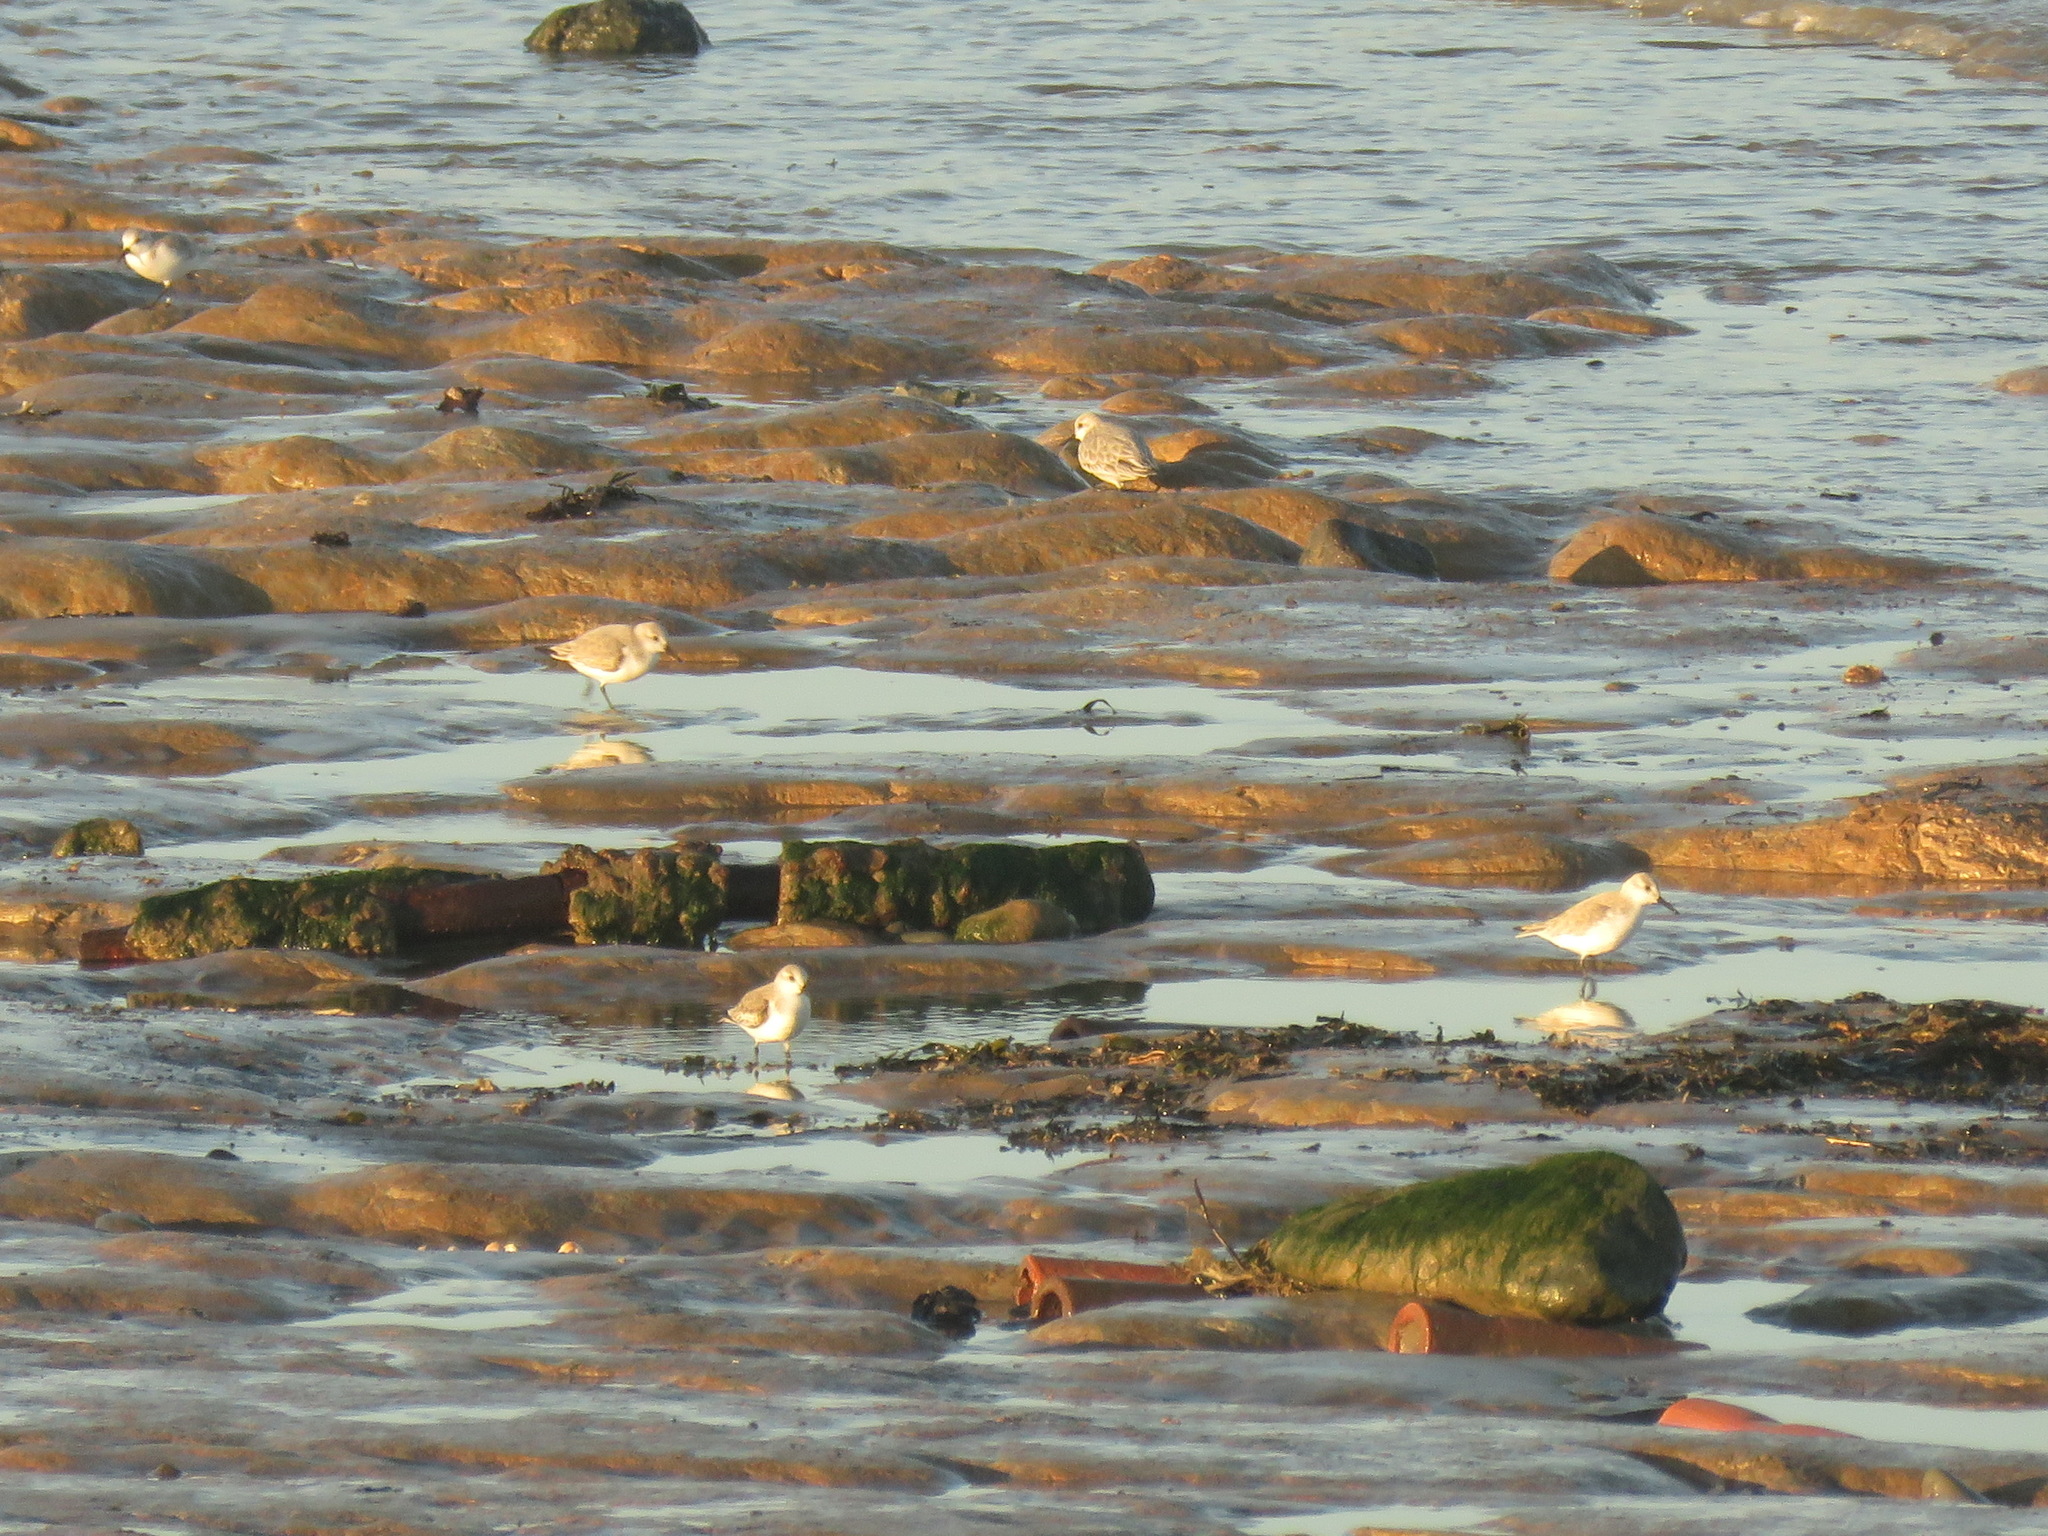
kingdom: Animalia
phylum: Chordata
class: Aves
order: Charadriiformes
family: Scolopacidae
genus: Calidris
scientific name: Calidris alba
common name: Sanderling
